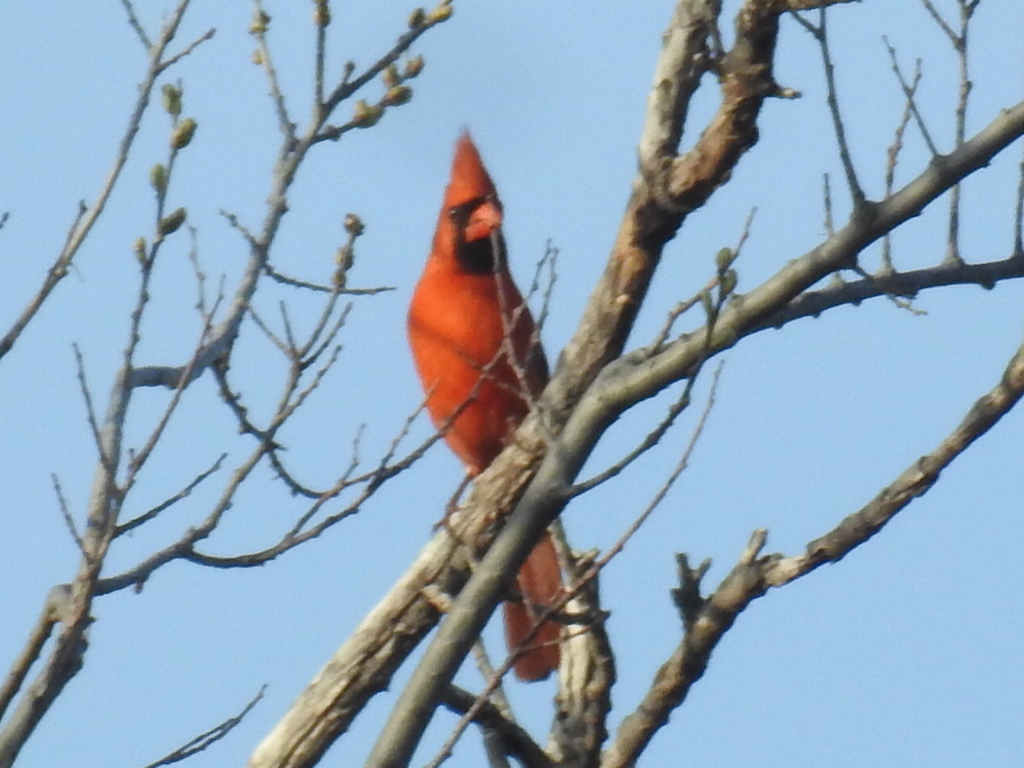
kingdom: Animalia
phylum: Chordata
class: Aves
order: Passeriformes
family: Cardinalidae
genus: Cardinalis
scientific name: Cardinalis cardinalis
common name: Northern cardinal
